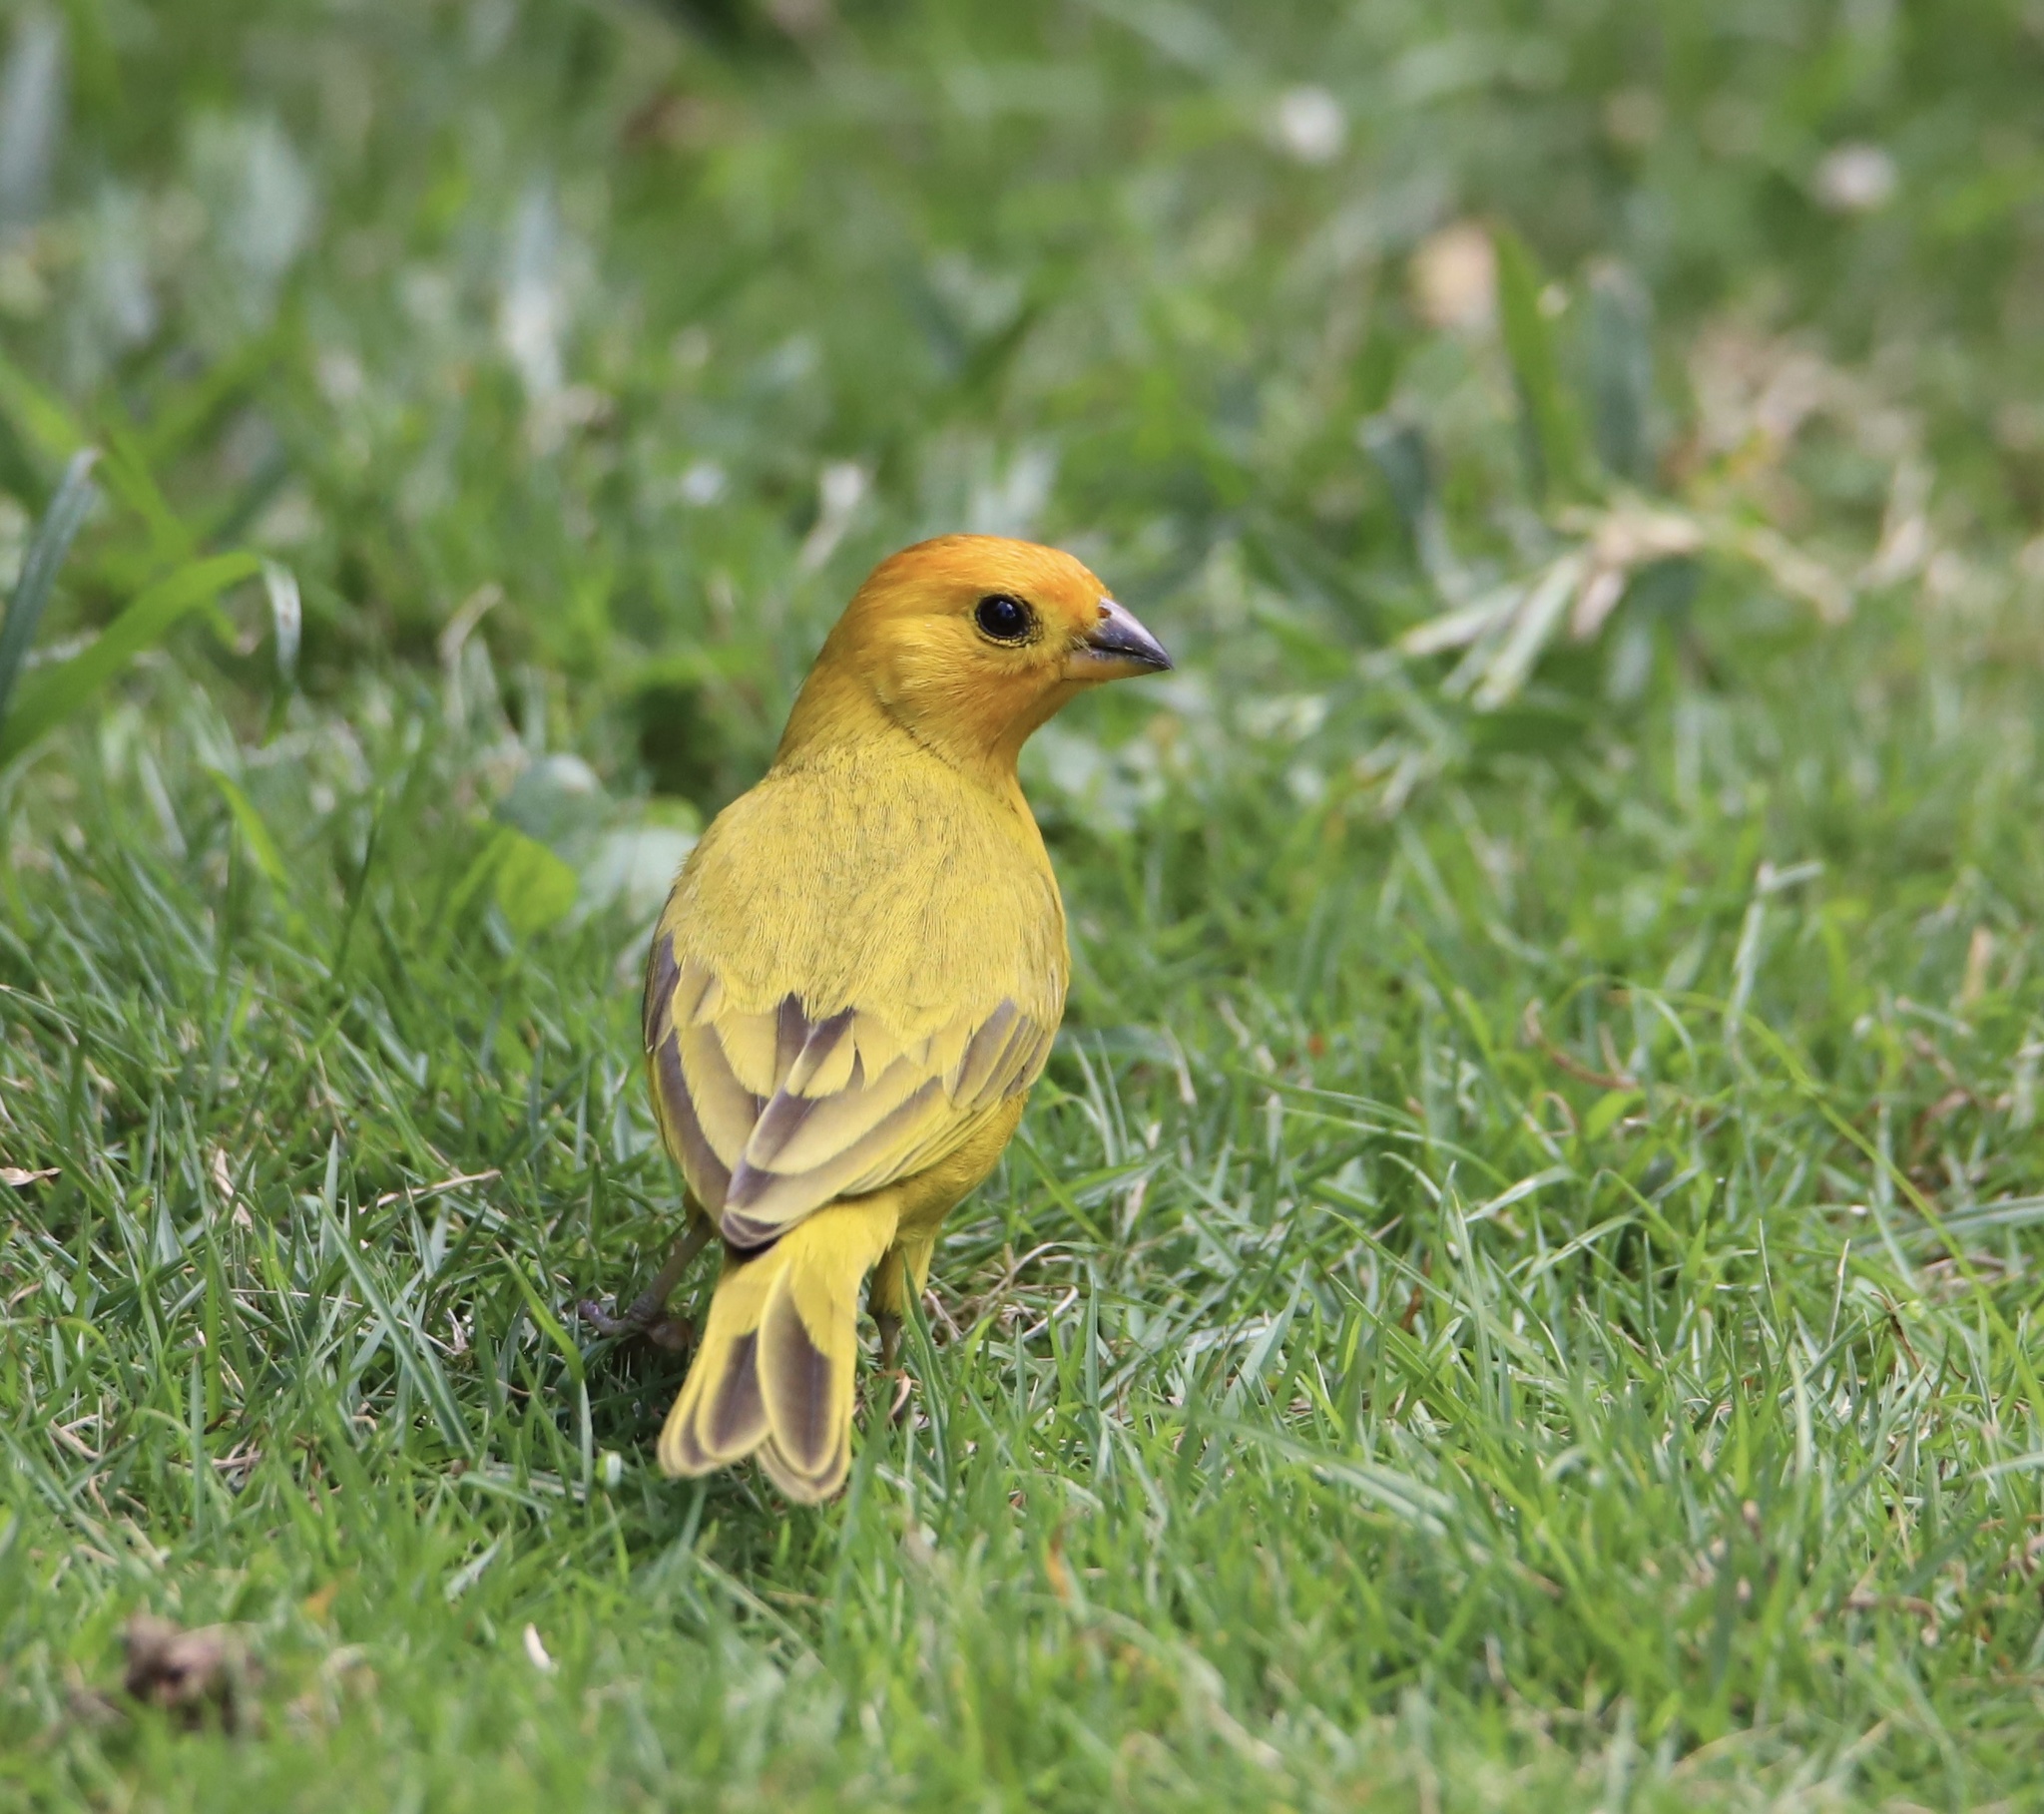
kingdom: Animalia
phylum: Chordata
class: Aves
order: Passeriformes
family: Thraupidae
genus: Sicalis
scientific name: Sicalis flaveola
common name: Saffron finch
